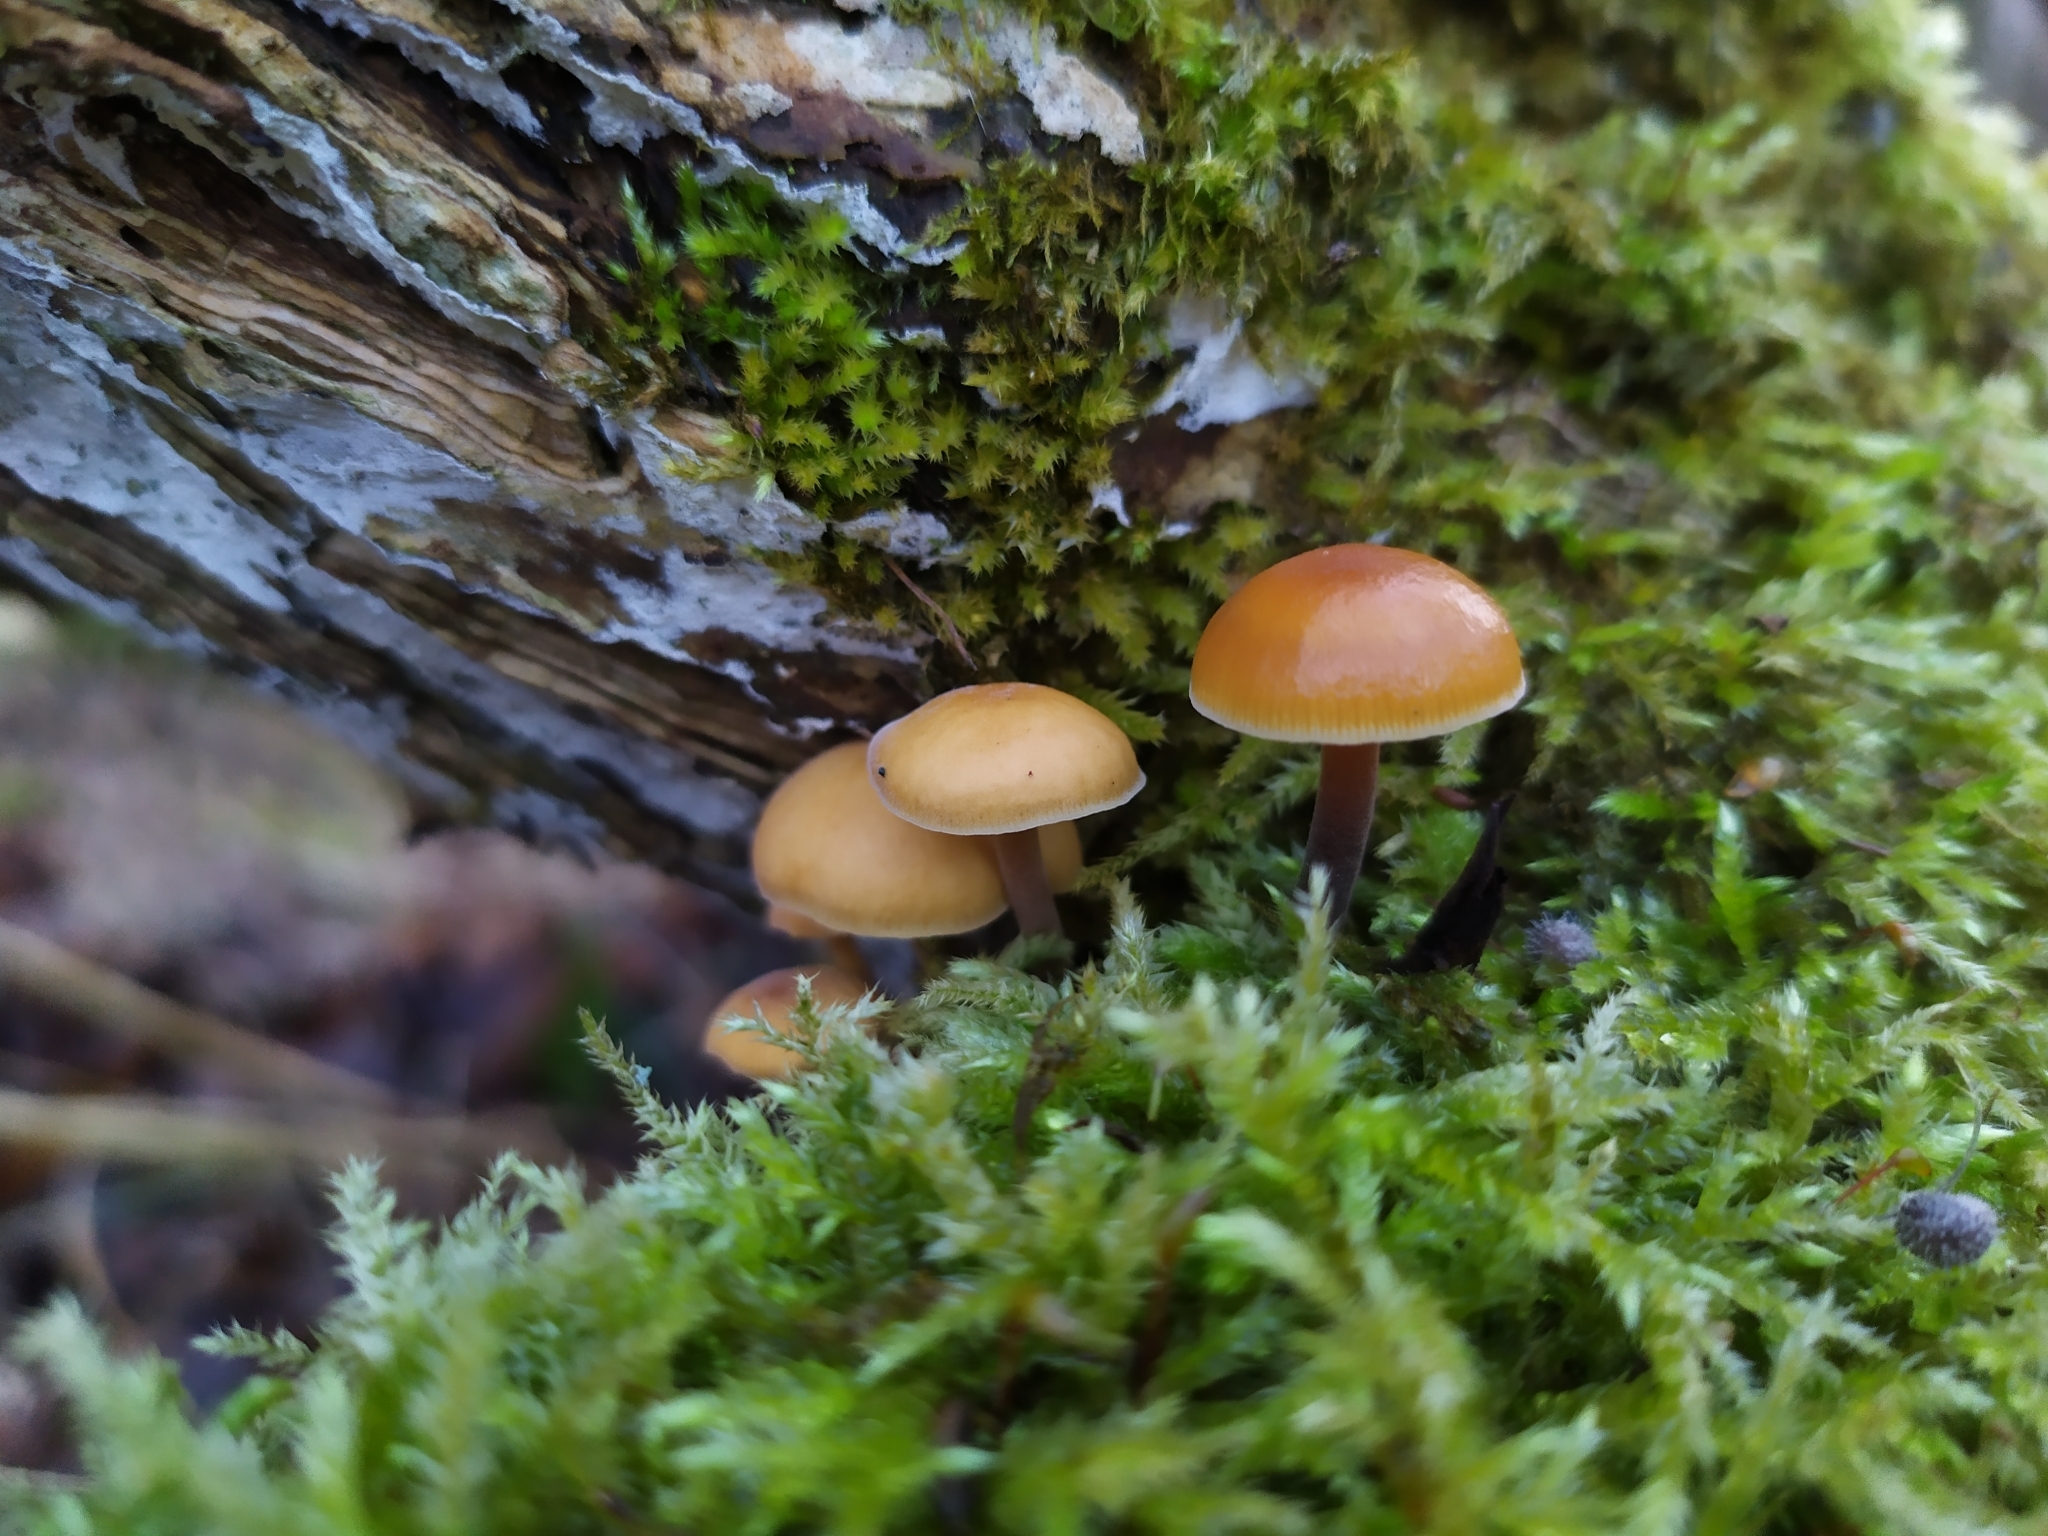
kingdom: Fungi
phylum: Basidiomycota
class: Agaricomycetes
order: Agaricales
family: Physalacriaceae
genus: Flammulina
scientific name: Flammulina
